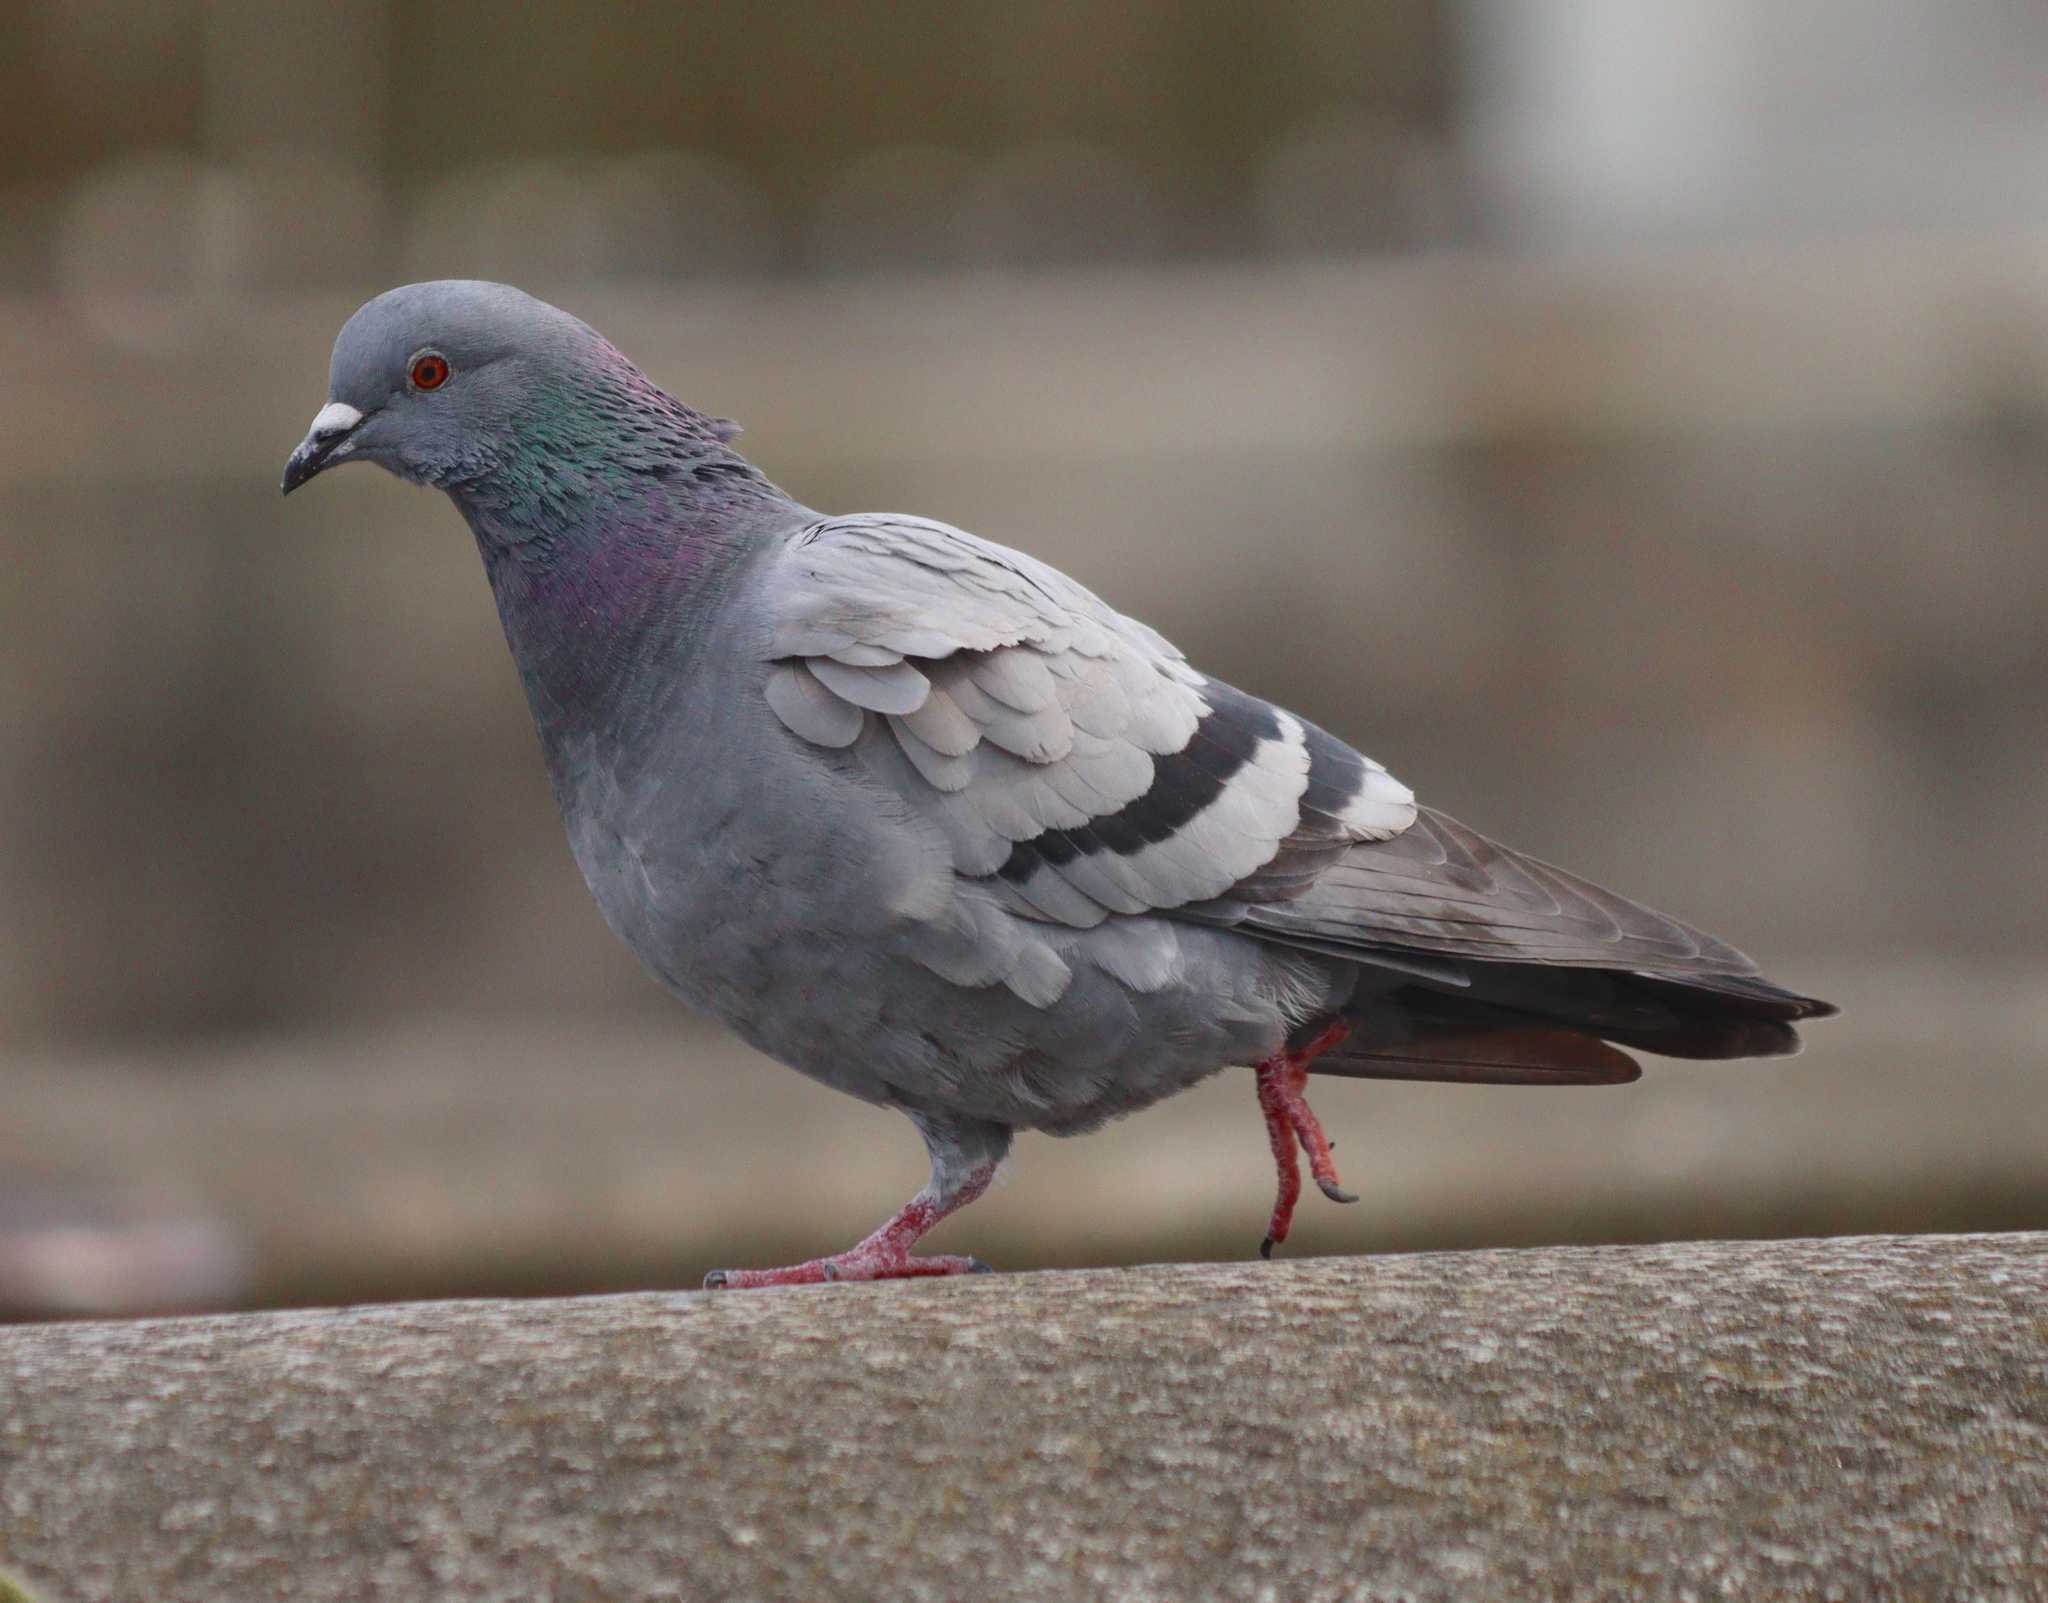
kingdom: Animalia
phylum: Chordata
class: Aves
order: Columbiformes
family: Columbidae
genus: Columba
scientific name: Columba livia
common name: Rock pigeon
